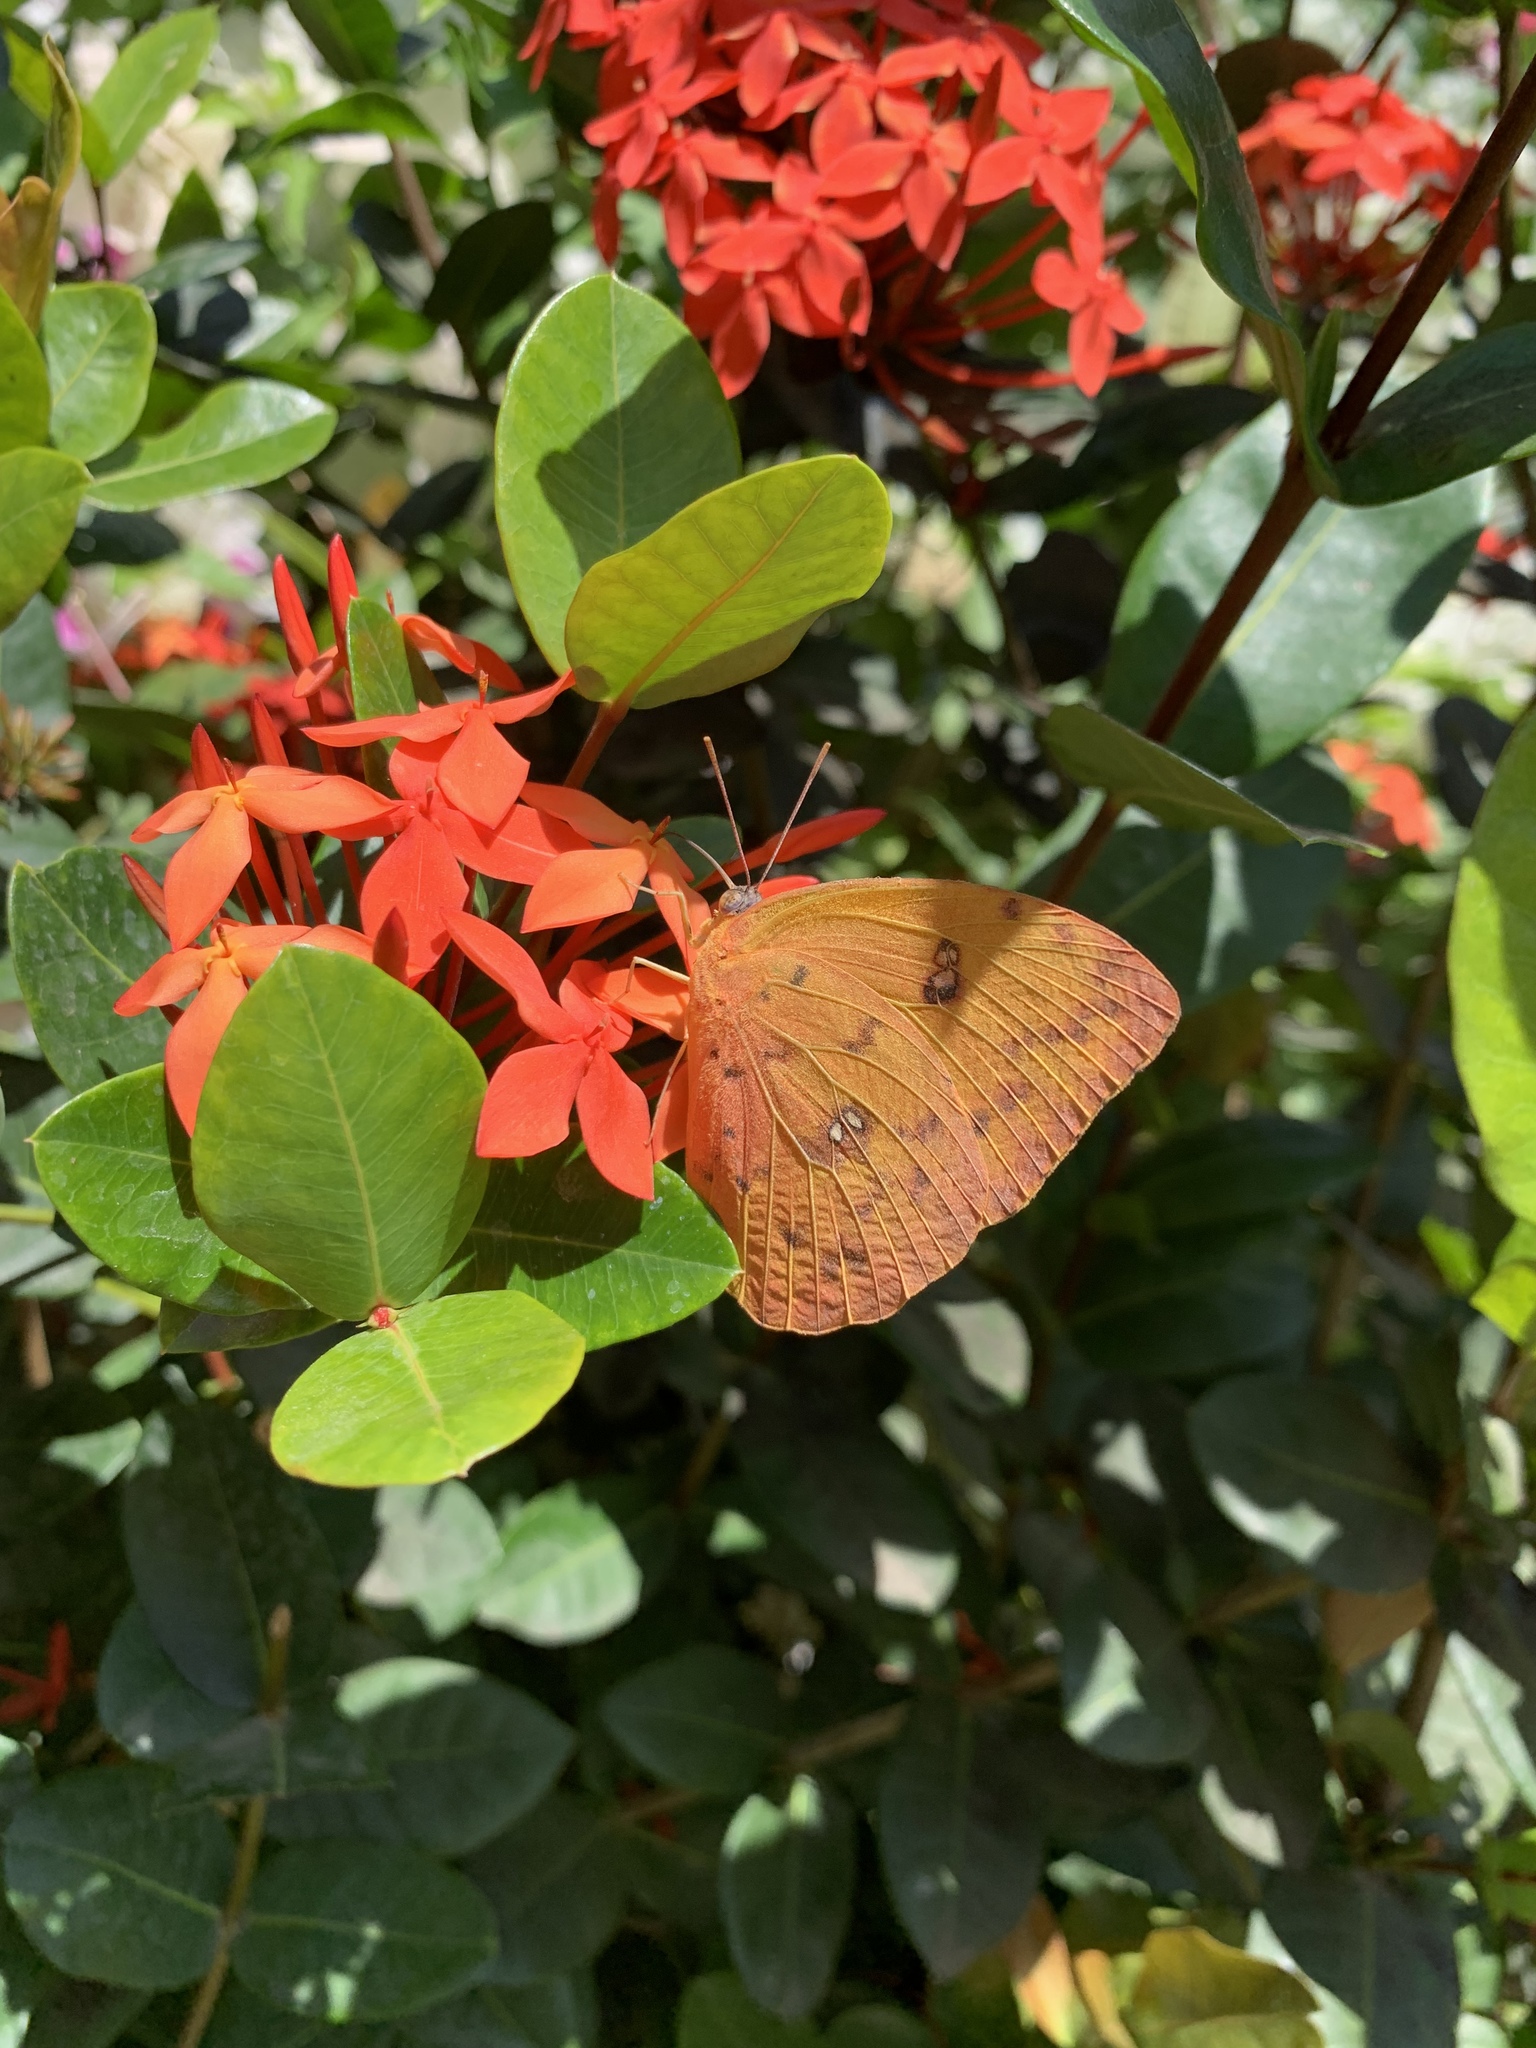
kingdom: Animalia
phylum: Arthropoda
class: Insecta
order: Lepidoptera
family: Pieridae
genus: Phoebis
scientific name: Phoebis philea
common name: Orange-barred giant sulphur
